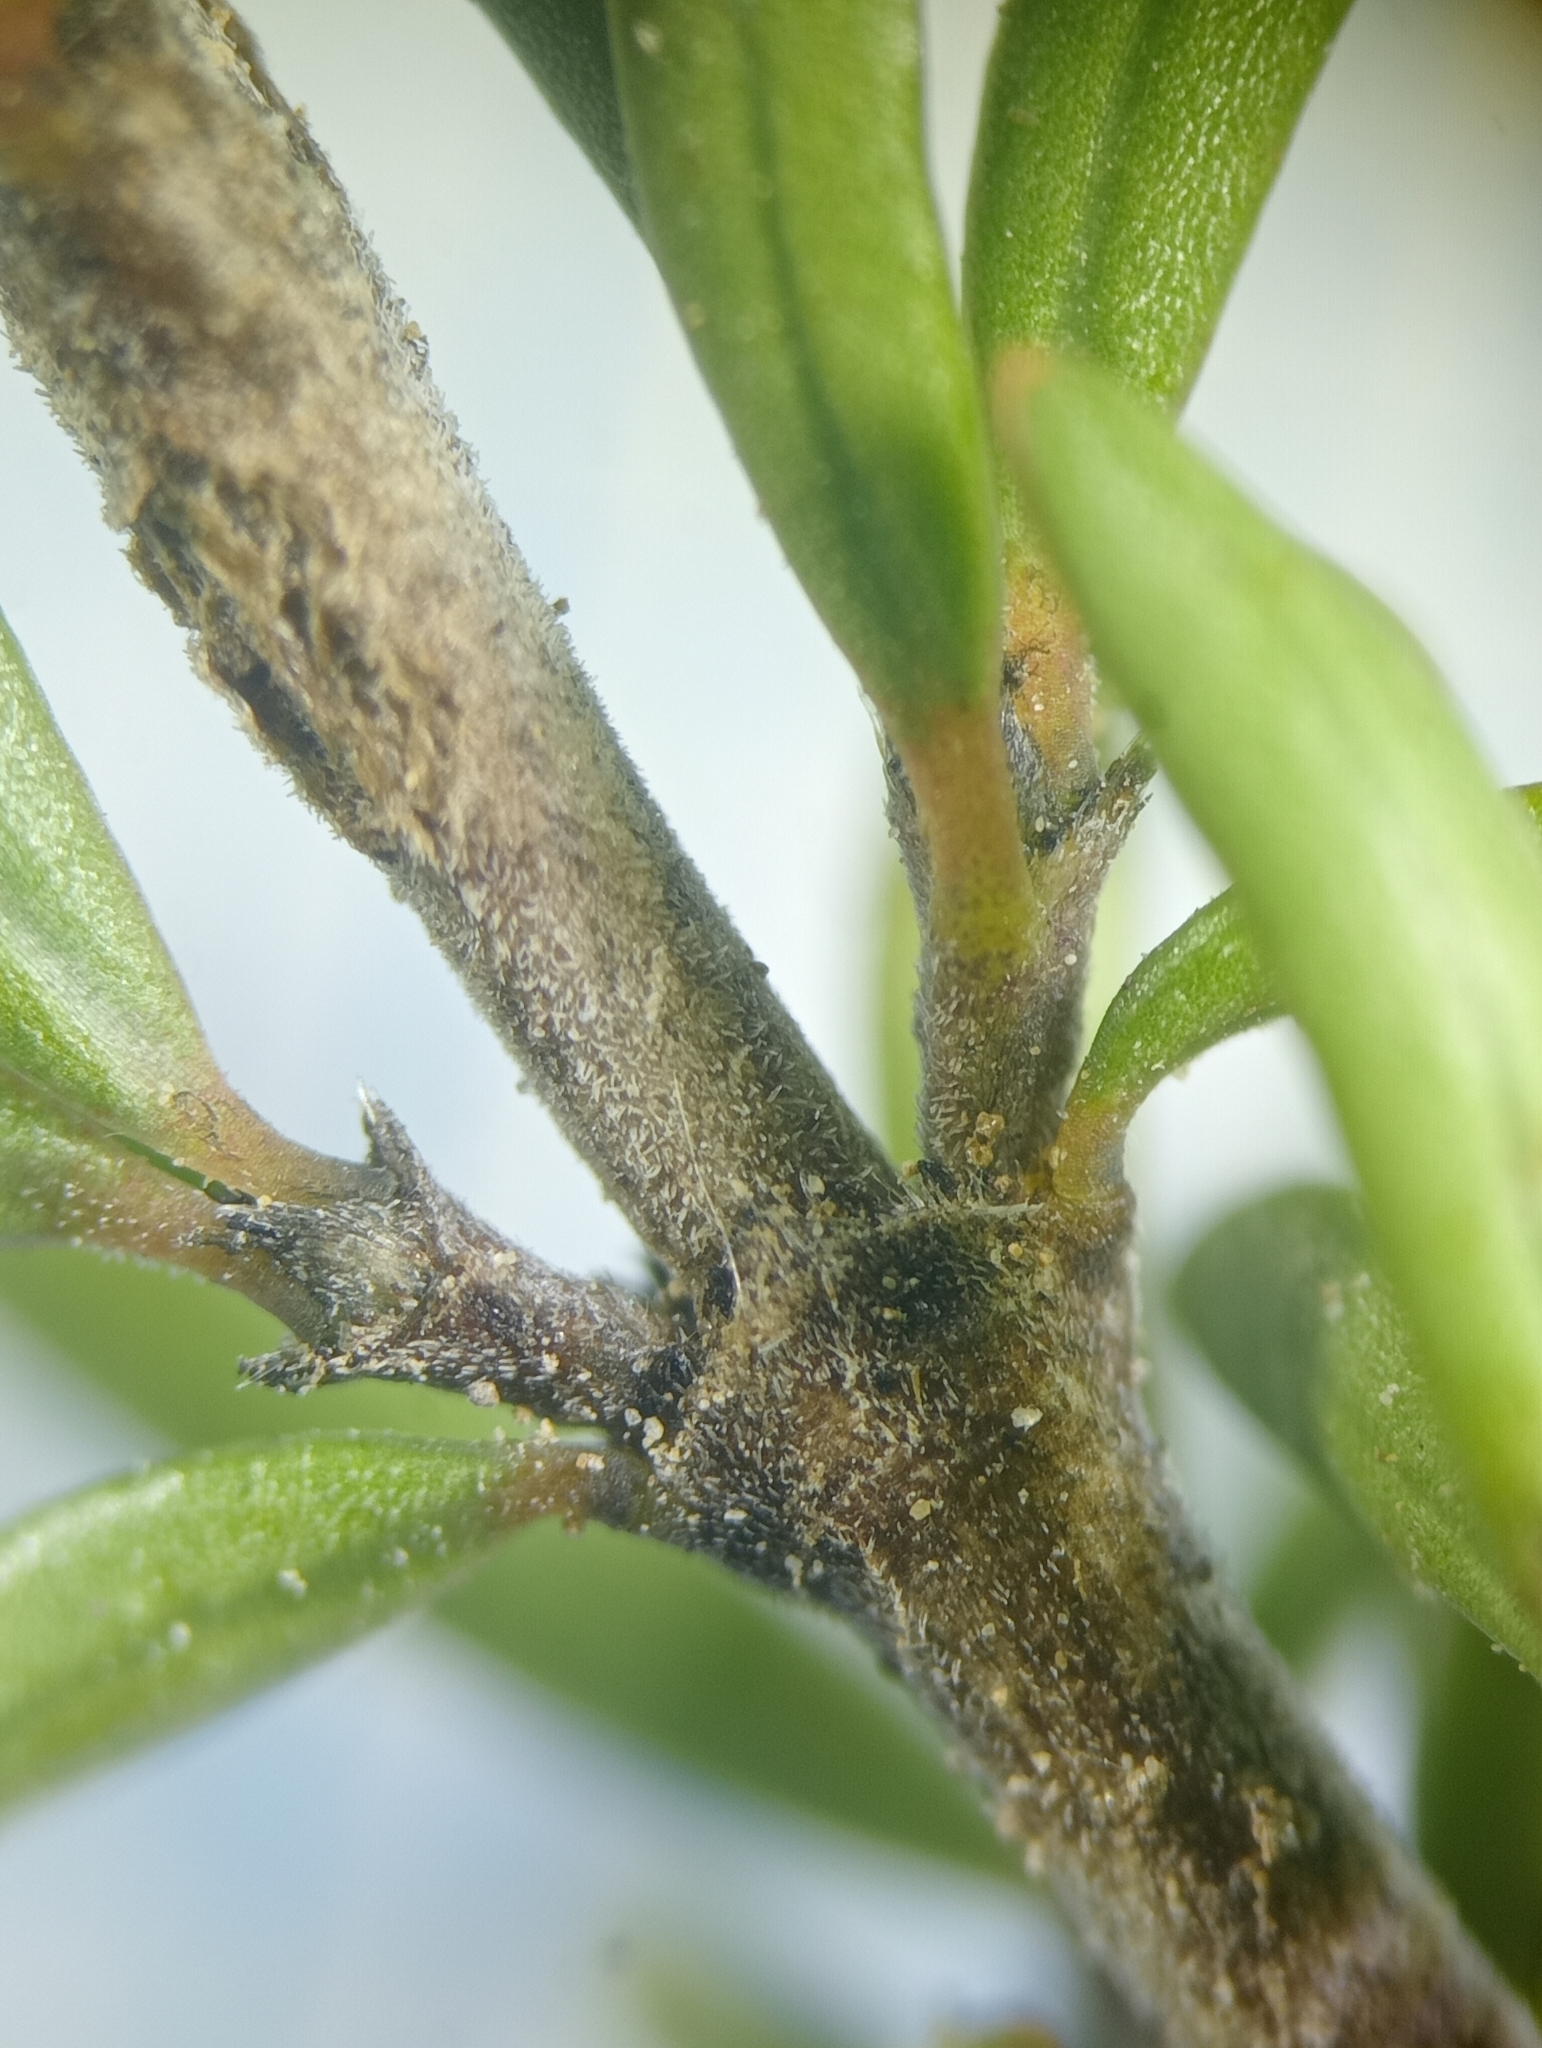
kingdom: Plantae
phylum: Tracheophyta
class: Magnoliopsida
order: Gentianales
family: Rubiaceae
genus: Coprosma
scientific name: Coprosma cheesemanii
